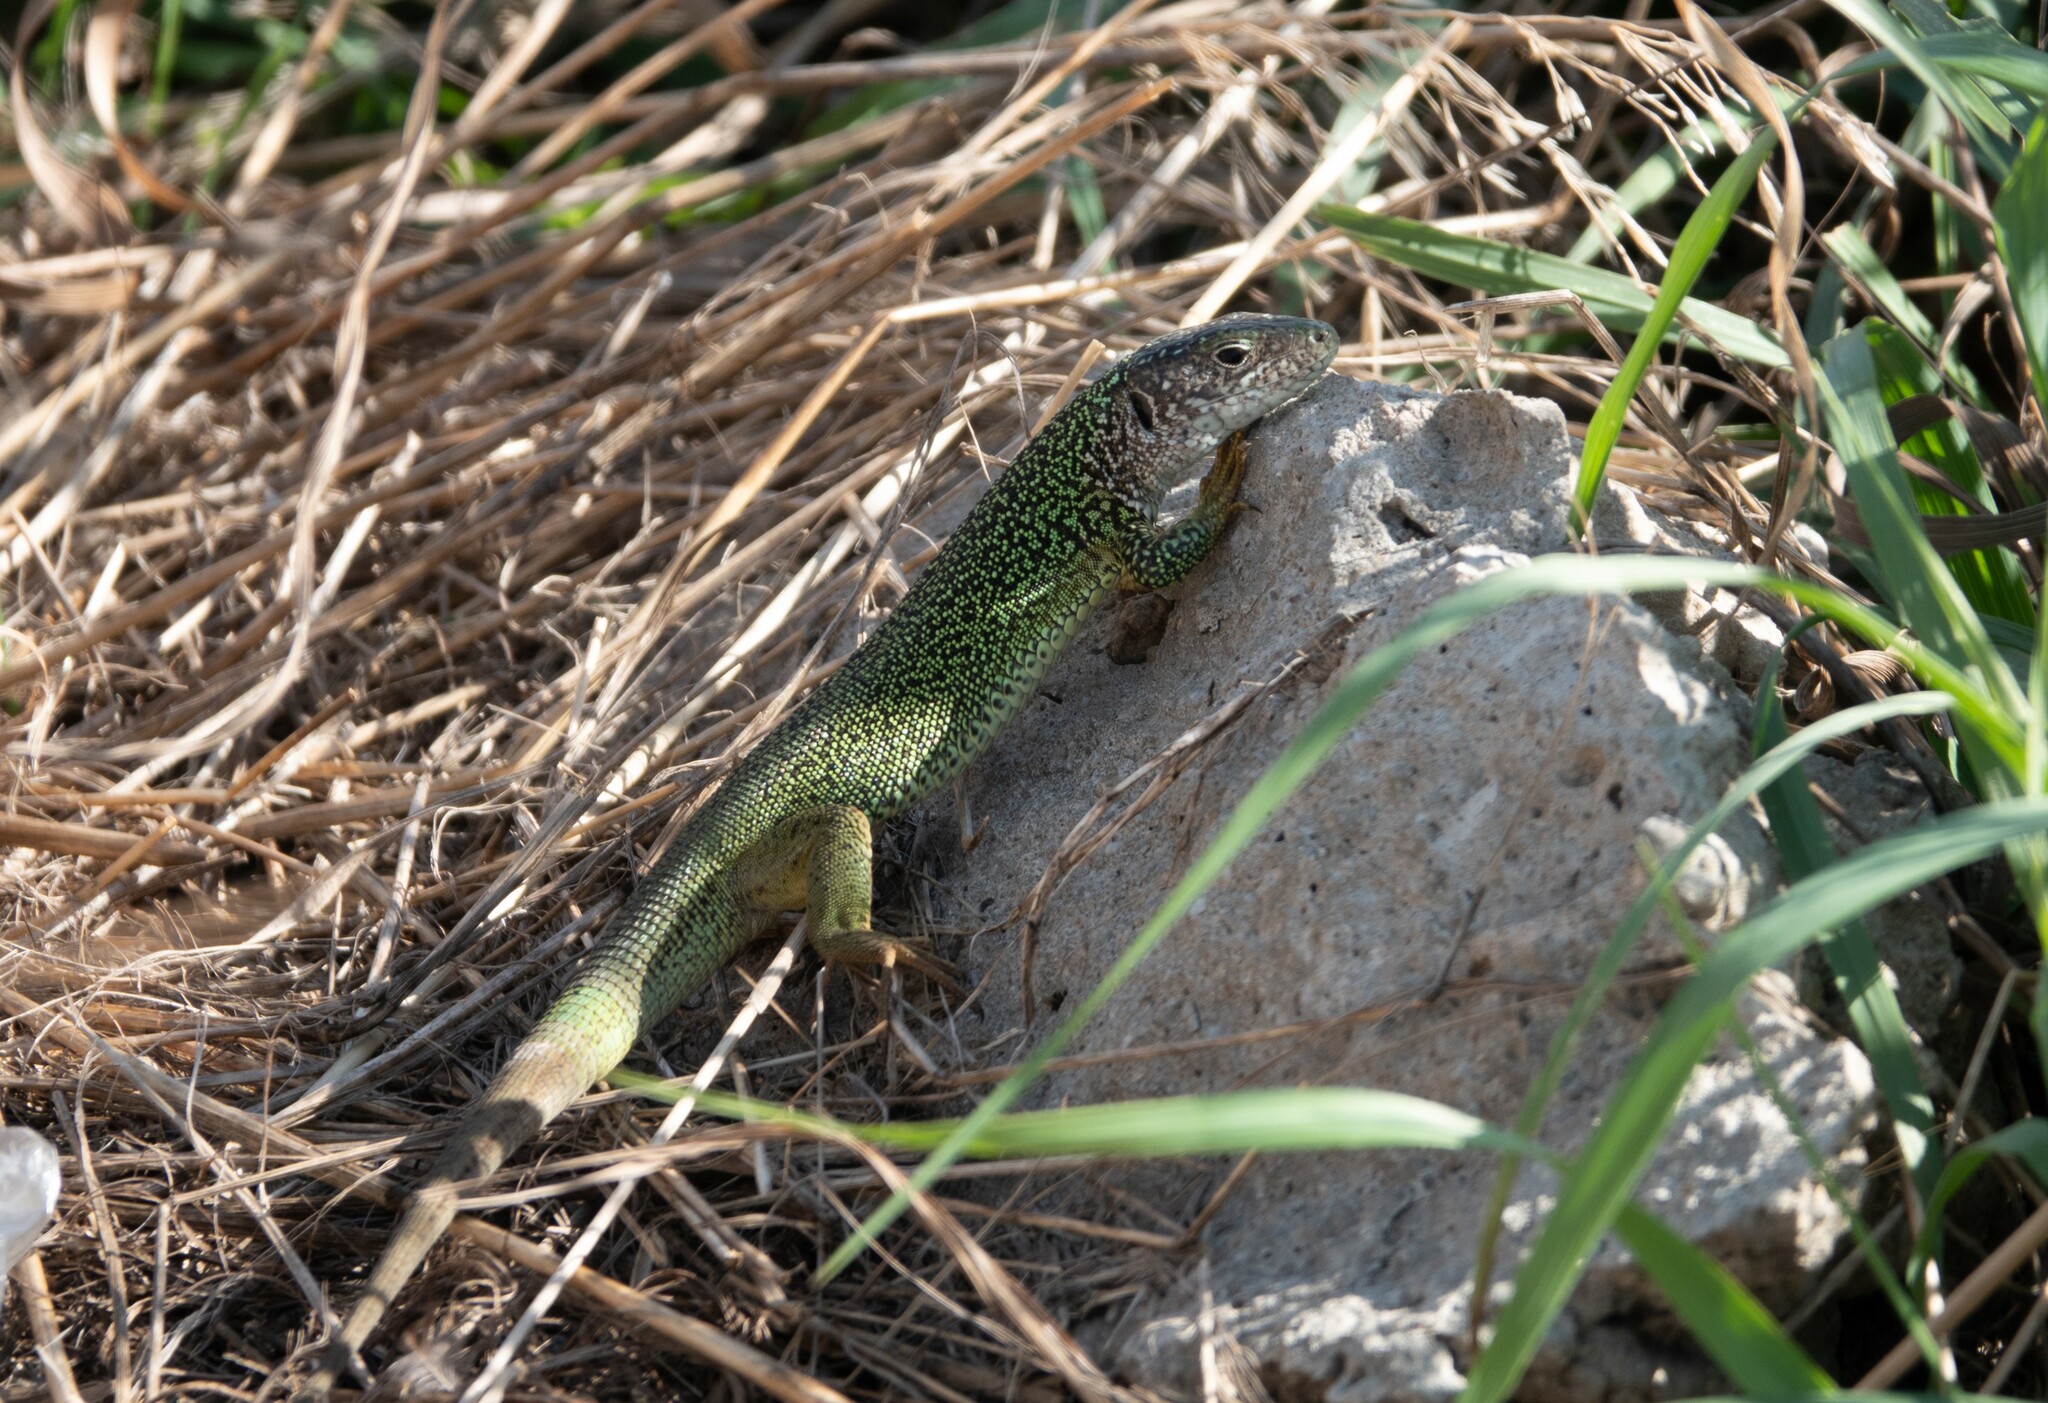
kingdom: Animalia
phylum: Chordata
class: Squamata
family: Lacertidae
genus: Lacerta
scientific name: Lacerta viridis
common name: European green lizard
